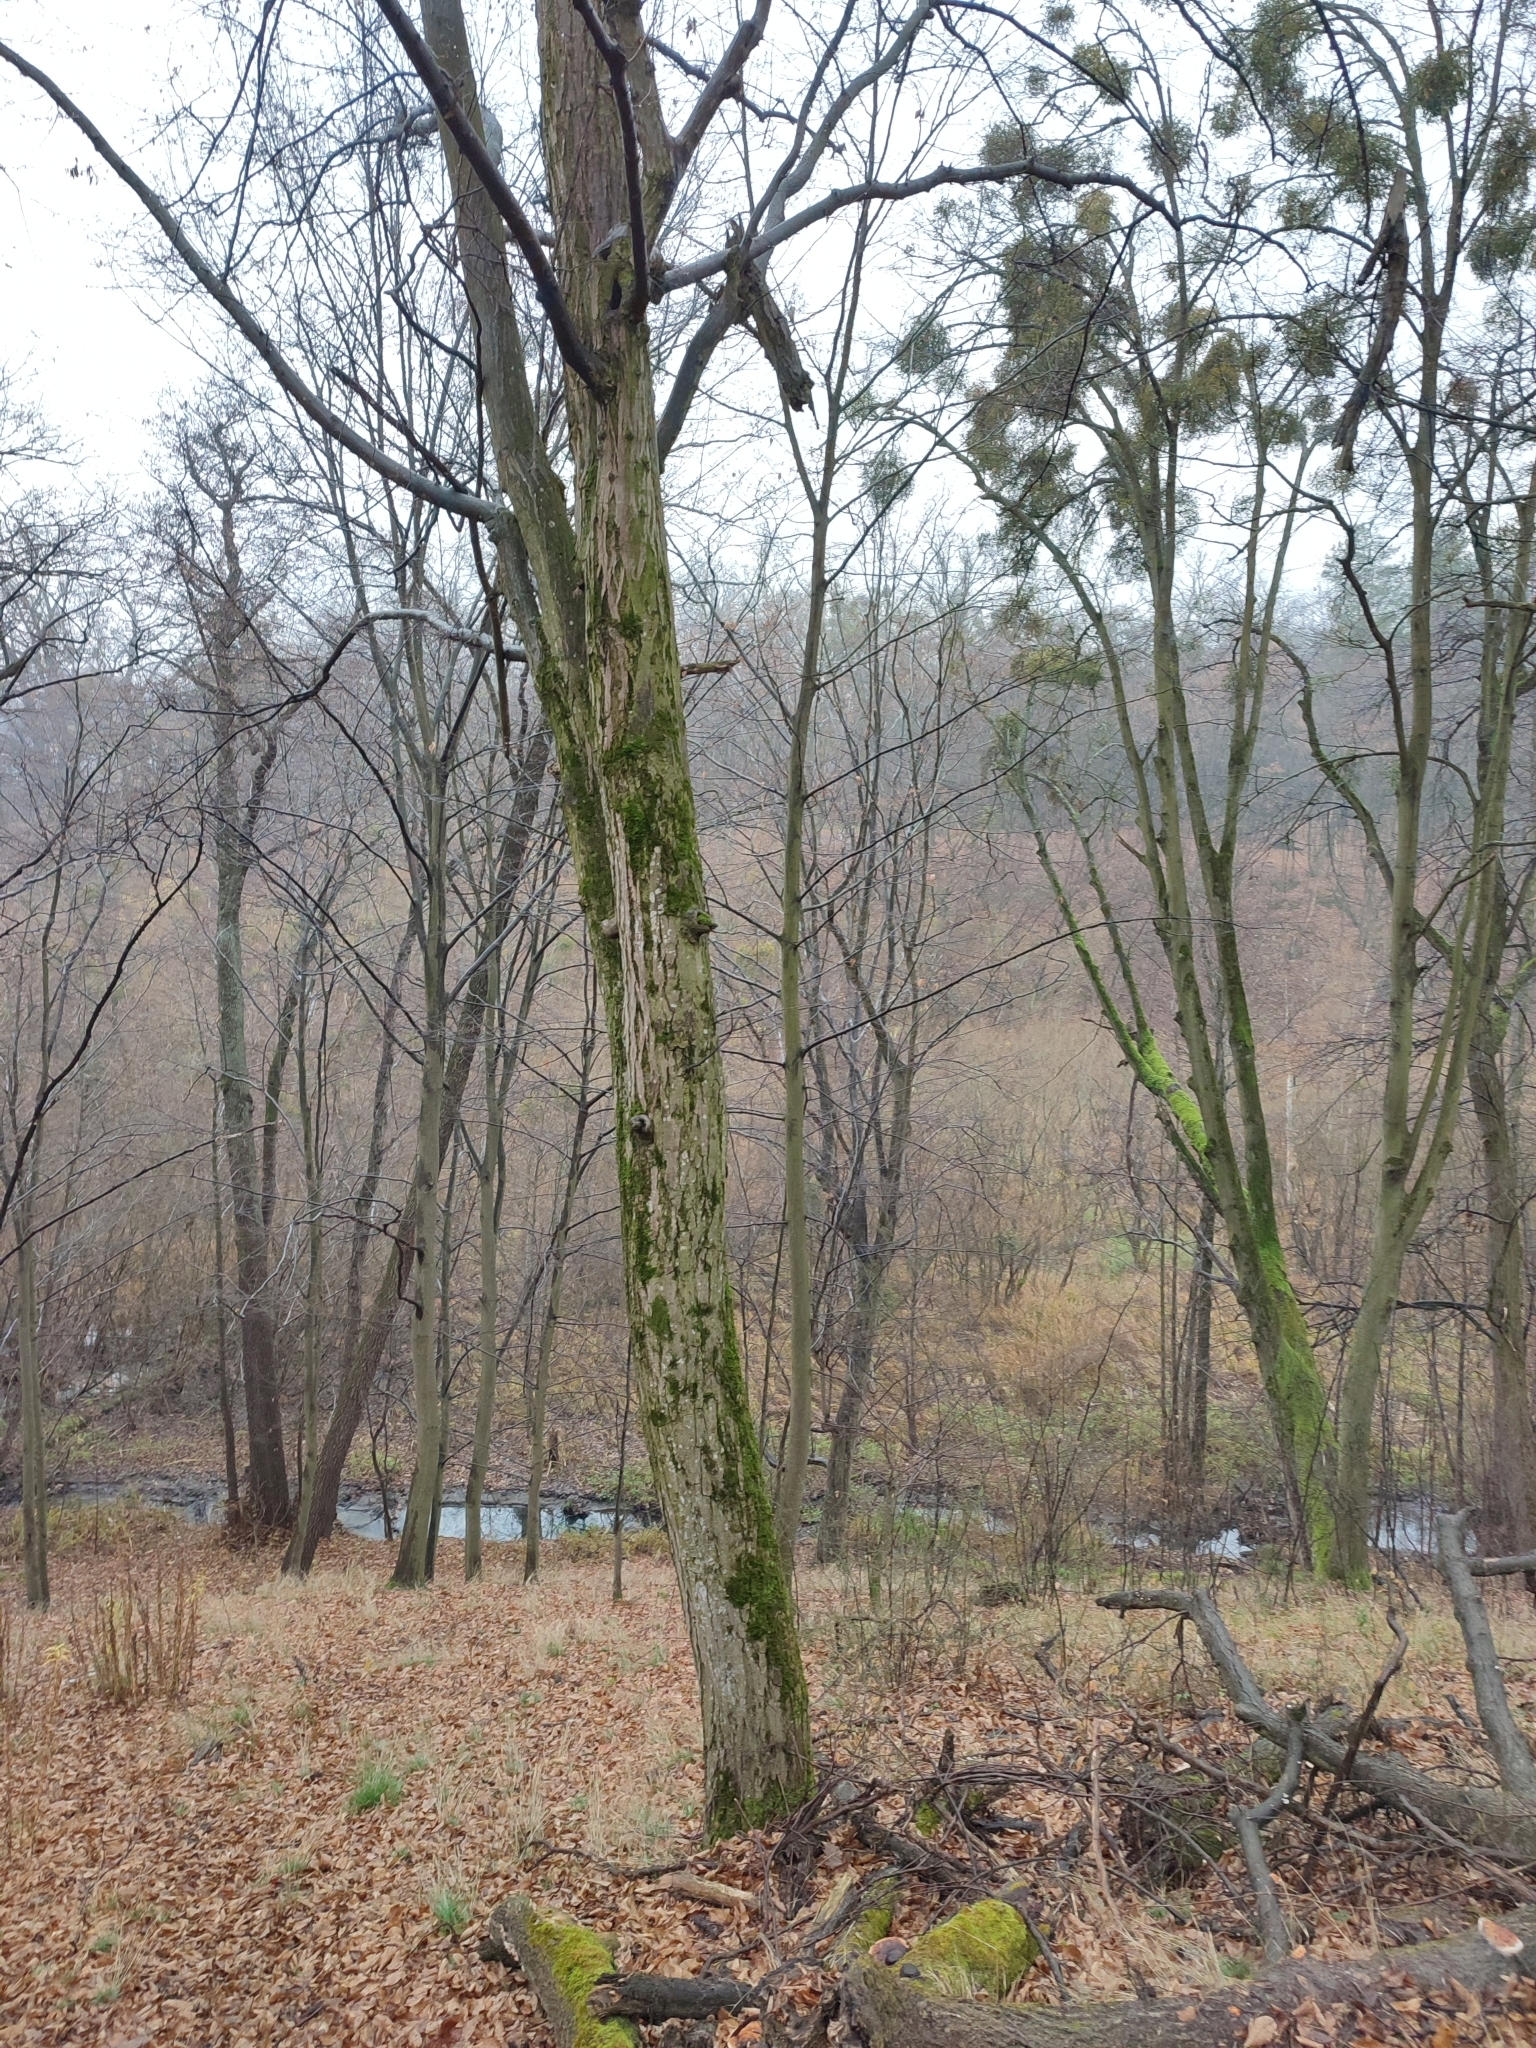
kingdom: Plantae
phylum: Tracheophyta
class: Magnoliopsida
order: Fagales
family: Betulaceae
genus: Carpinus
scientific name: Carpinus betulus
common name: Hornbeam
